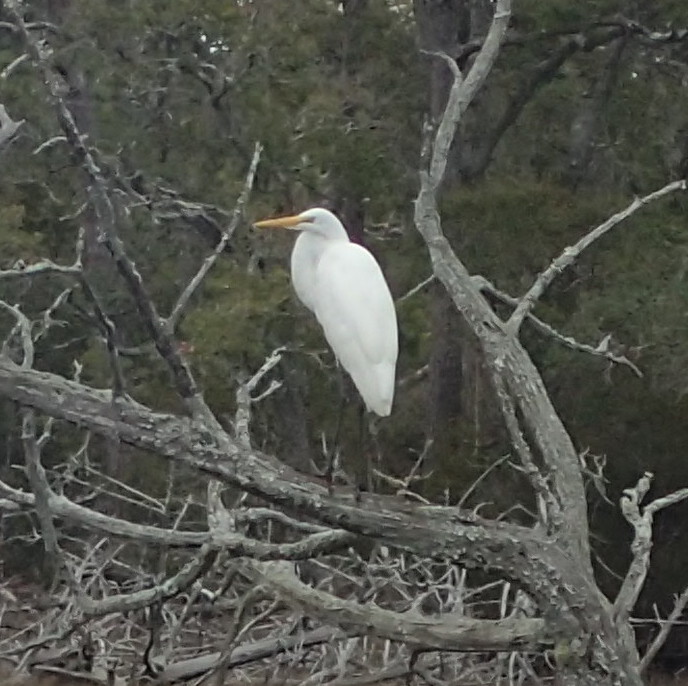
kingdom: Animalia
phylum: Chordata
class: Aves
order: Pelecaniformes
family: Ardeidae
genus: Ardea
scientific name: Ardea alba
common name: Great egret
